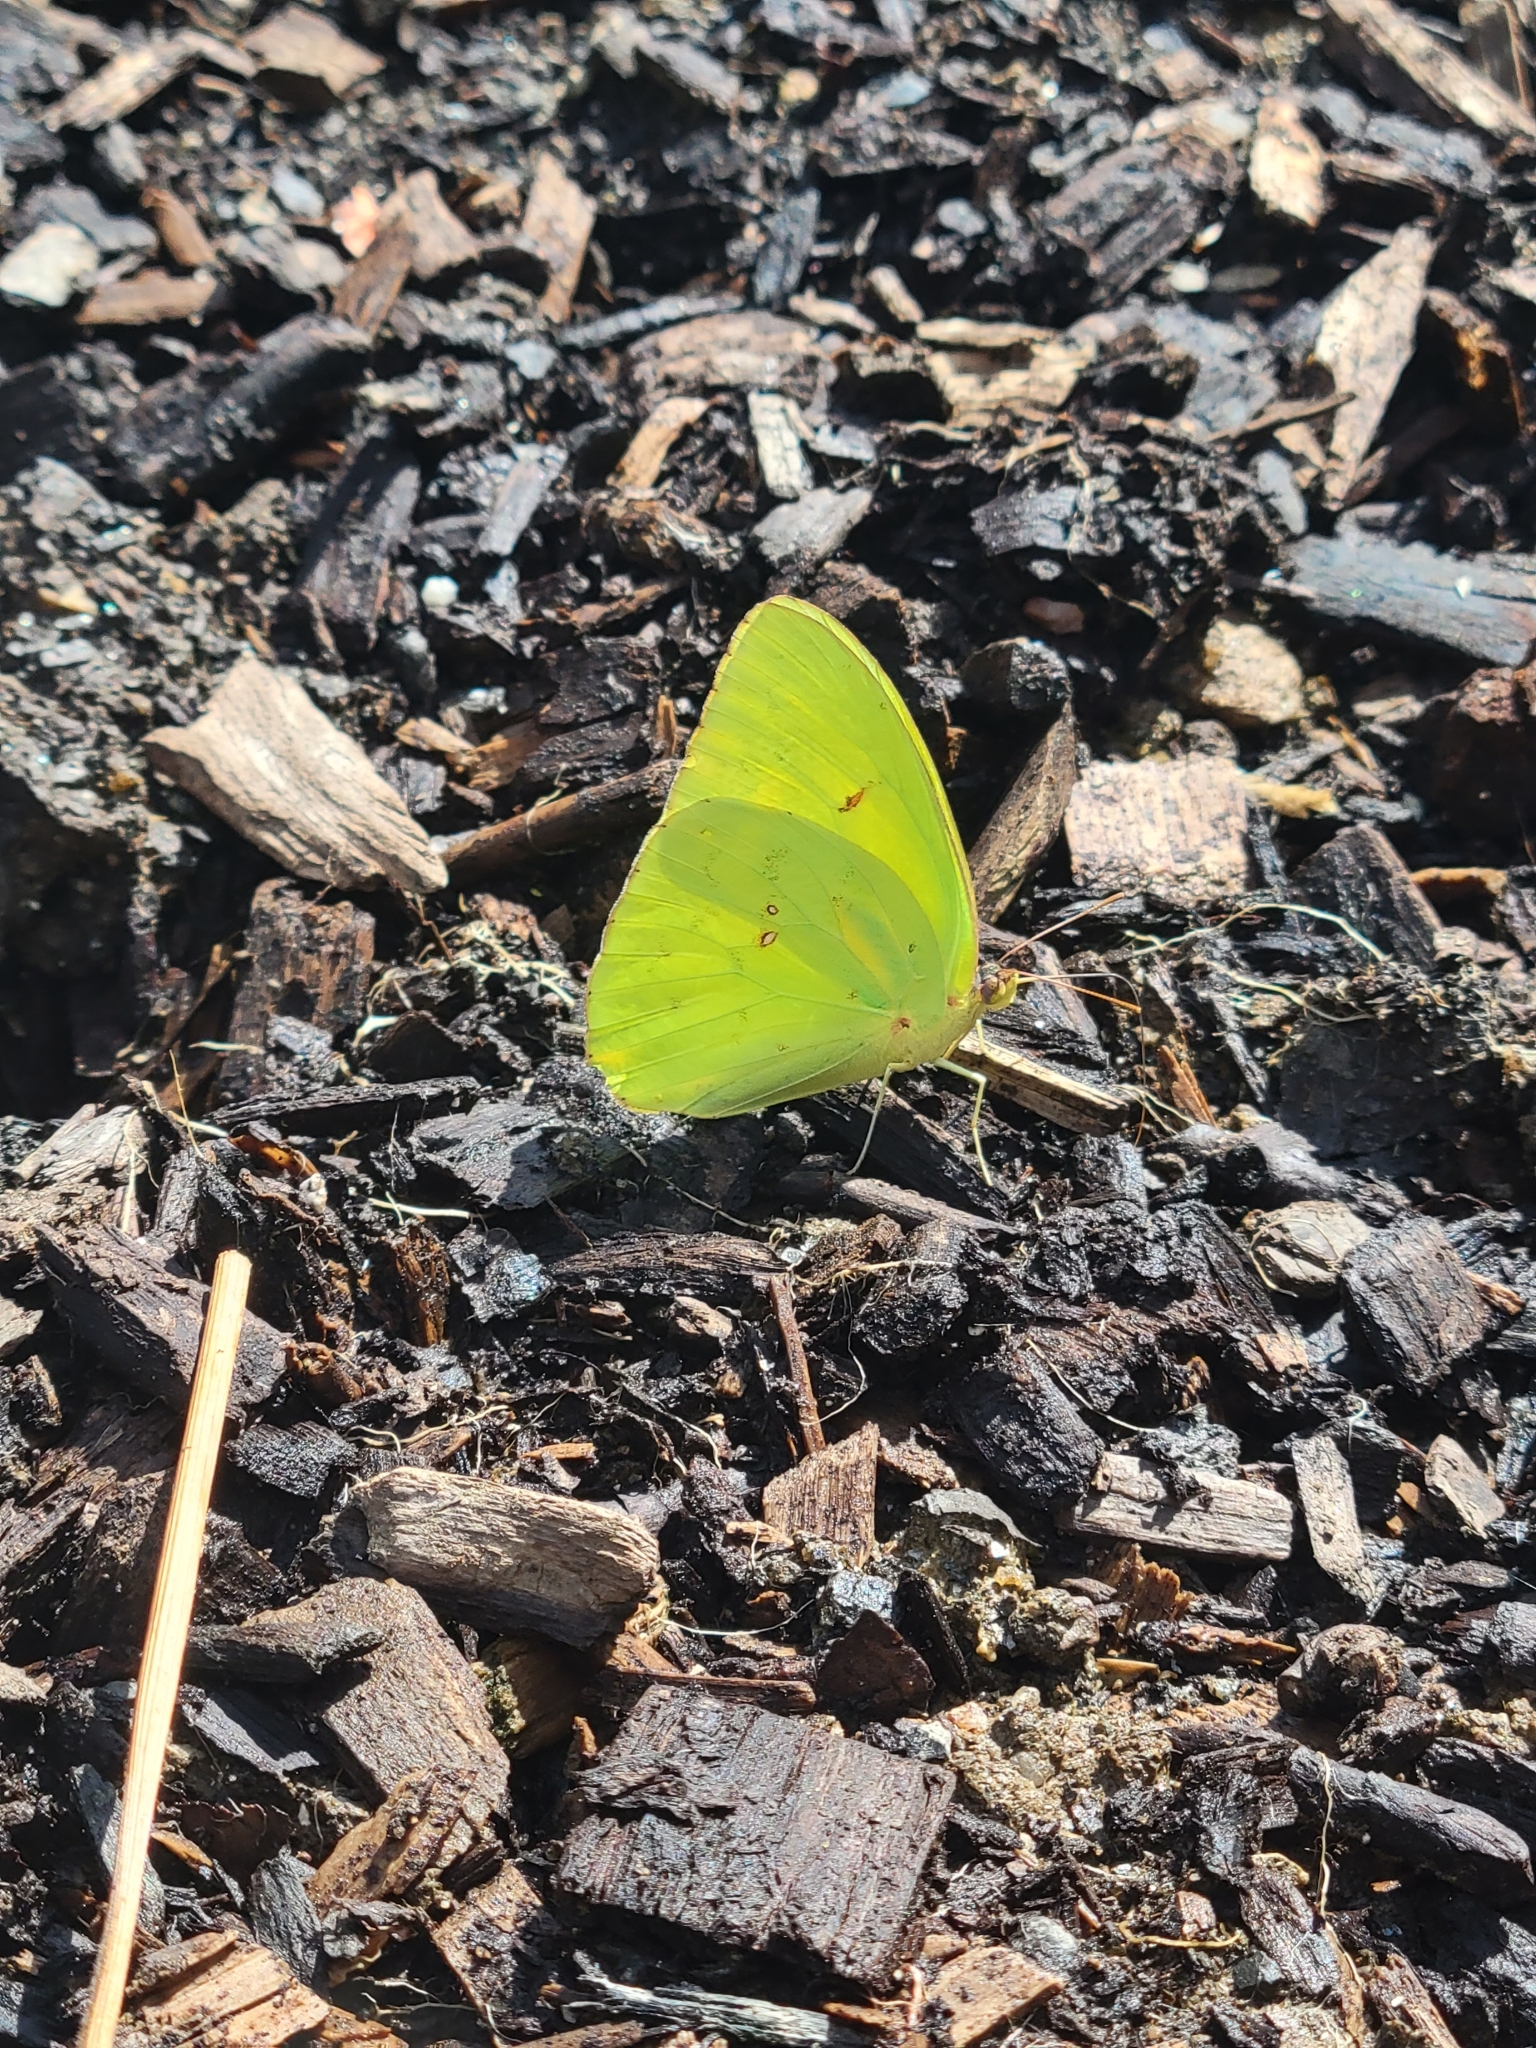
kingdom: Animalia
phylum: Arthropoda
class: Insecta
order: Lepidoptera
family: Pieridae
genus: Phoebis
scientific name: Phoebis sennae
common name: Cloudless sulphur
